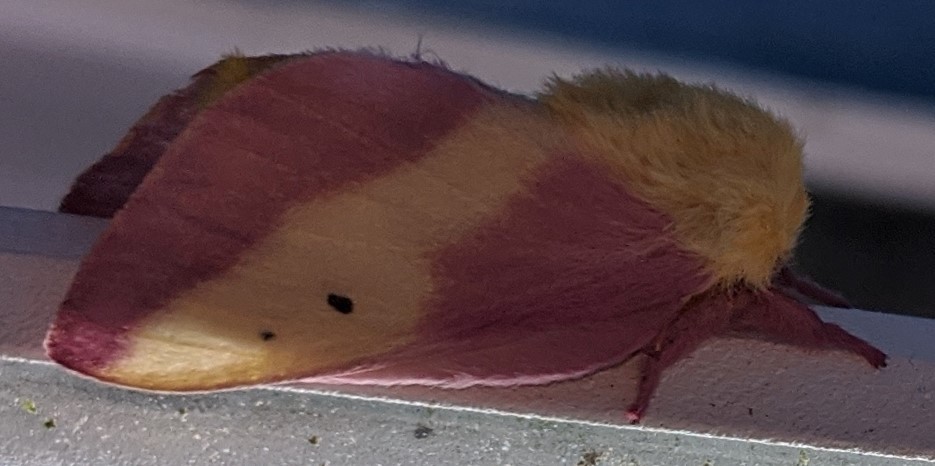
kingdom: Animalia
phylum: Arthropoda
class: Insecta
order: Lepidoptera
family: Saturniidae
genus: Dryocampa
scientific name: Dryocampa rubicunda
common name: Rosy maple moth
